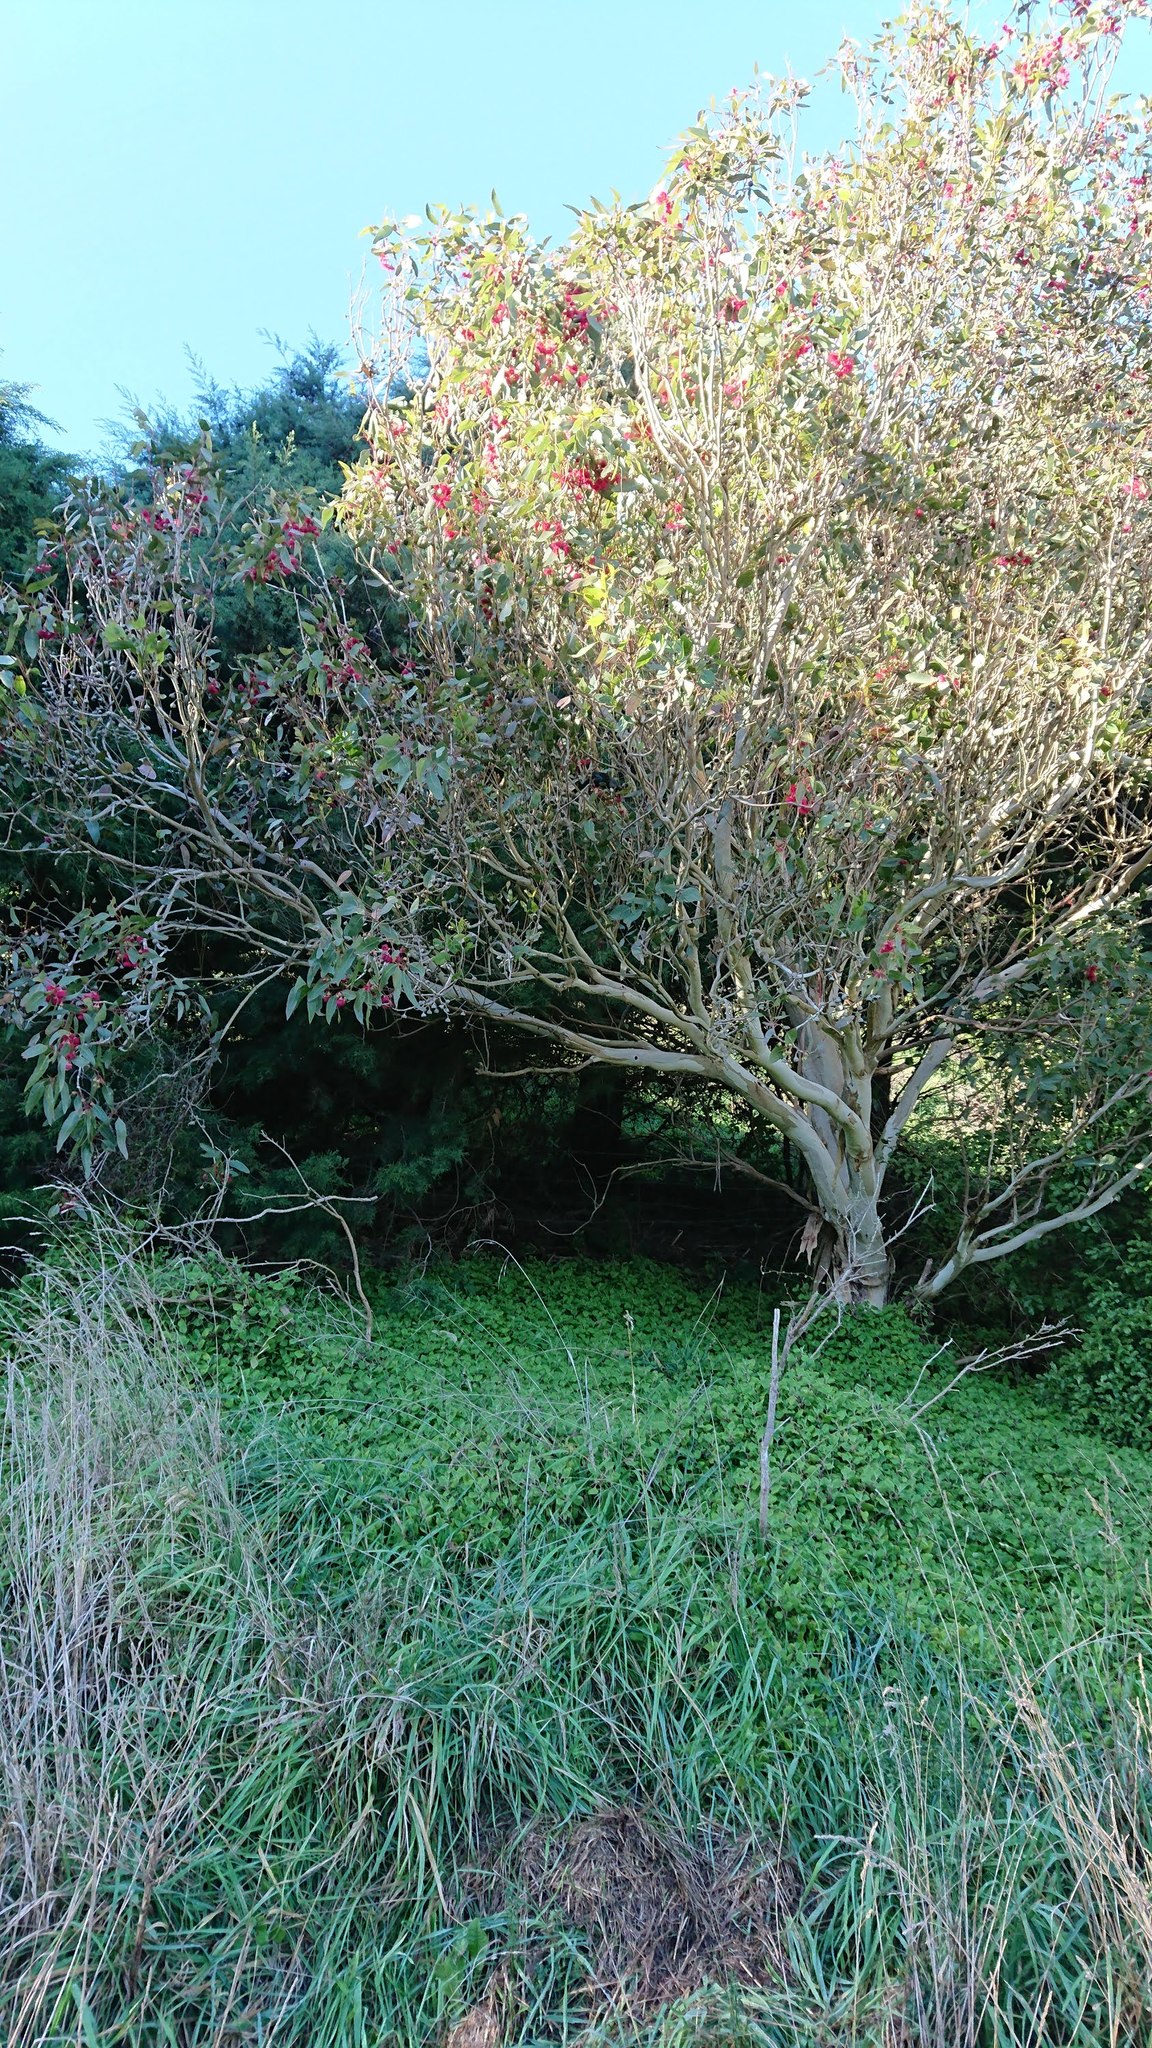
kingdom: Animalia
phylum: Chordata
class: Aves
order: Passeriformes
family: Meliphagidae
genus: Prosthemadera
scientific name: Prosthemadera novaeseelandiae
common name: Tui
